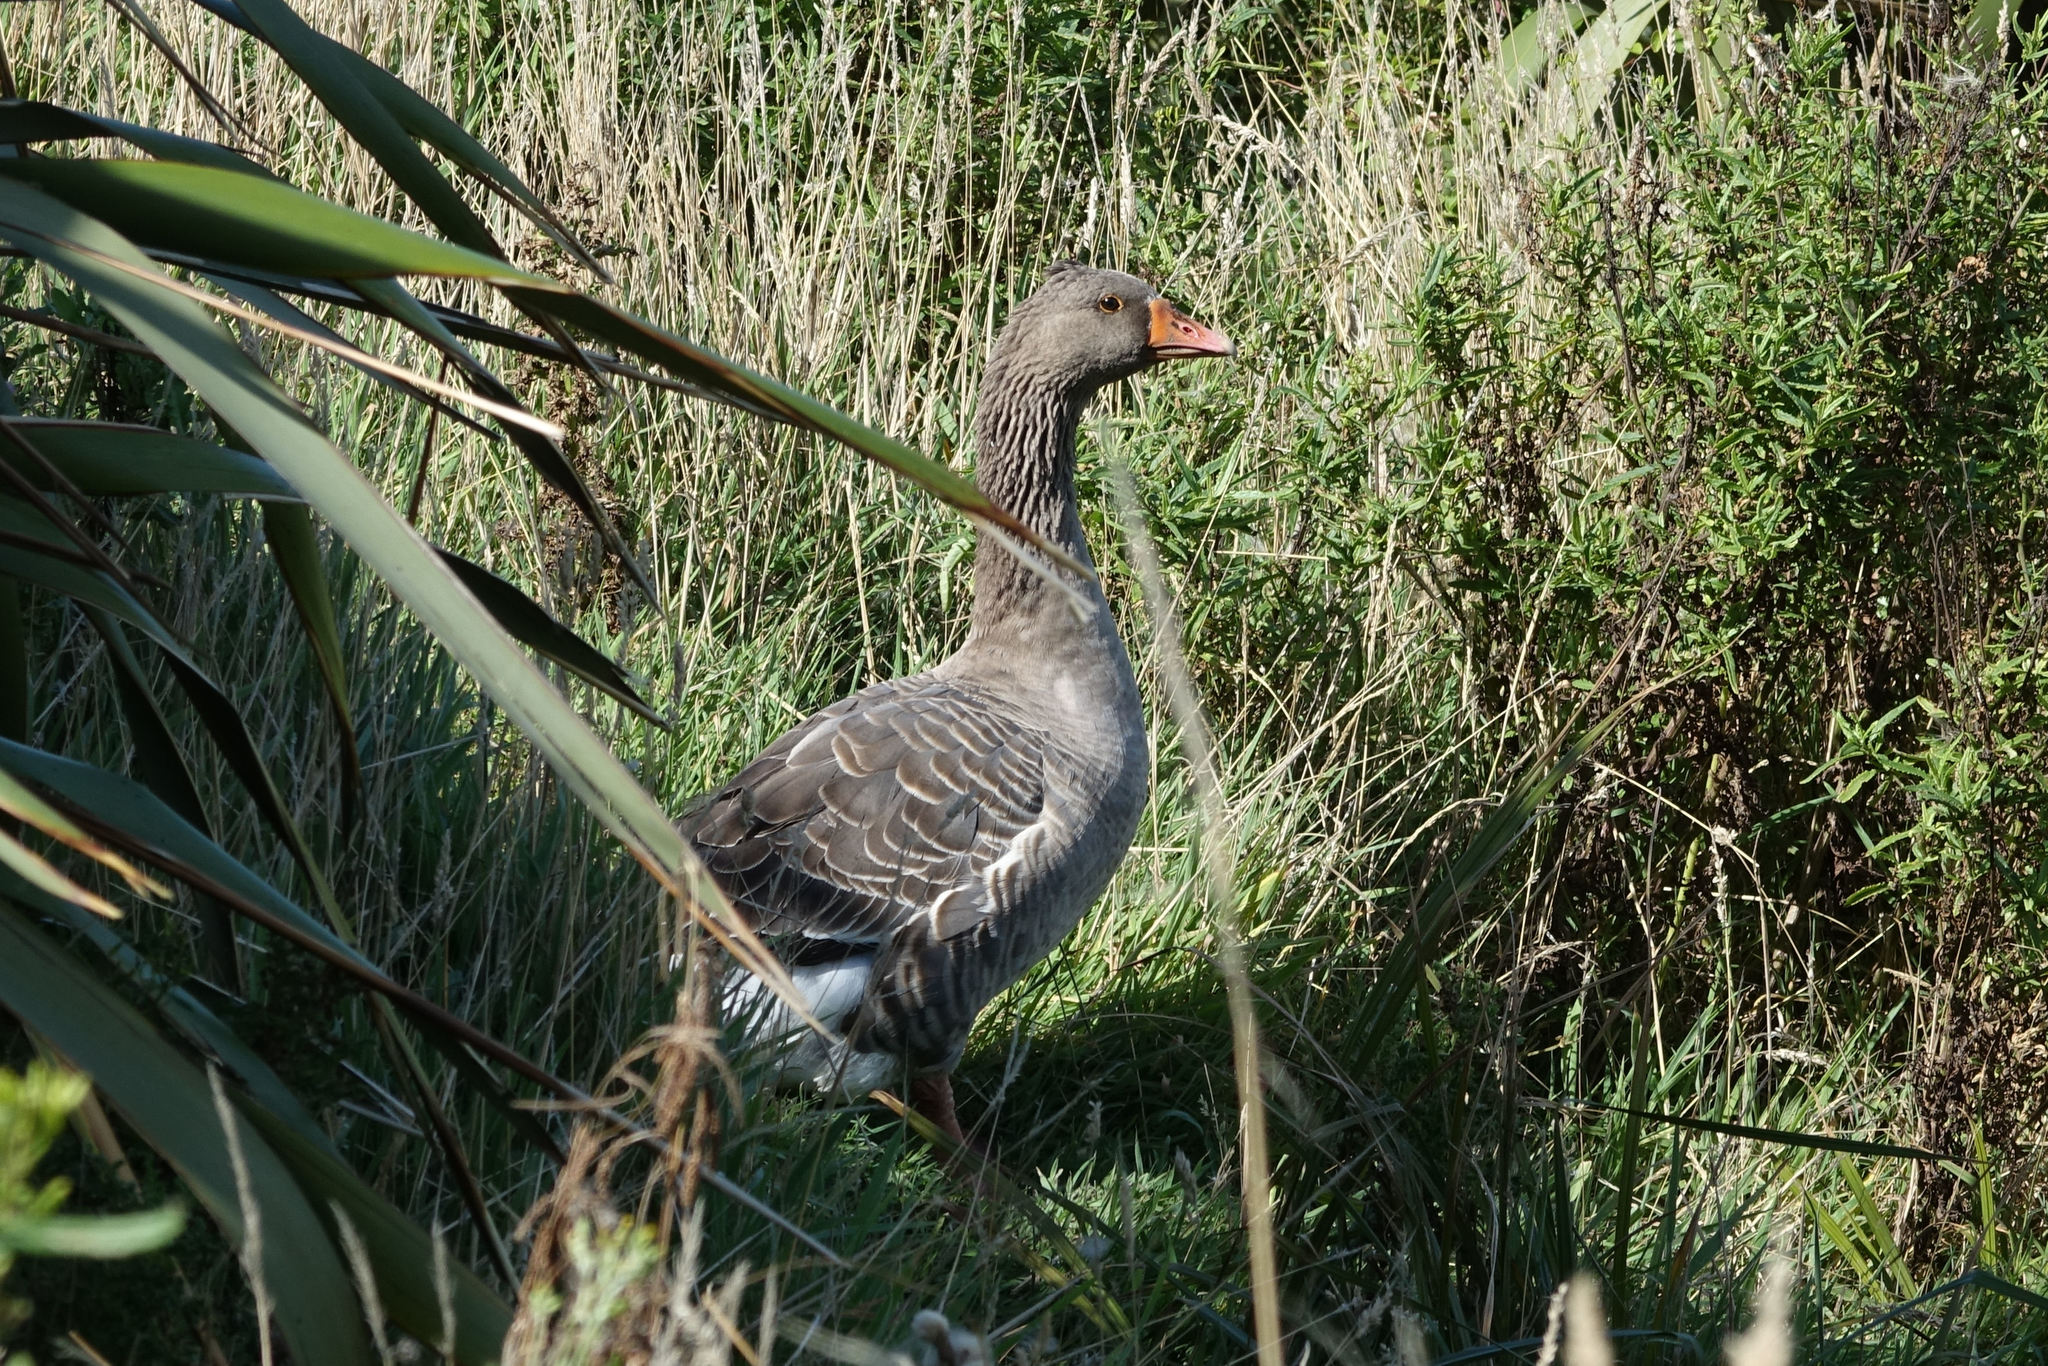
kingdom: Animalia
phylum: Chordata
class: Aves
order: Anseriformes
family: Anatidae
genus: Anser
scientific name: Anser anser
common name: Greylag goose
